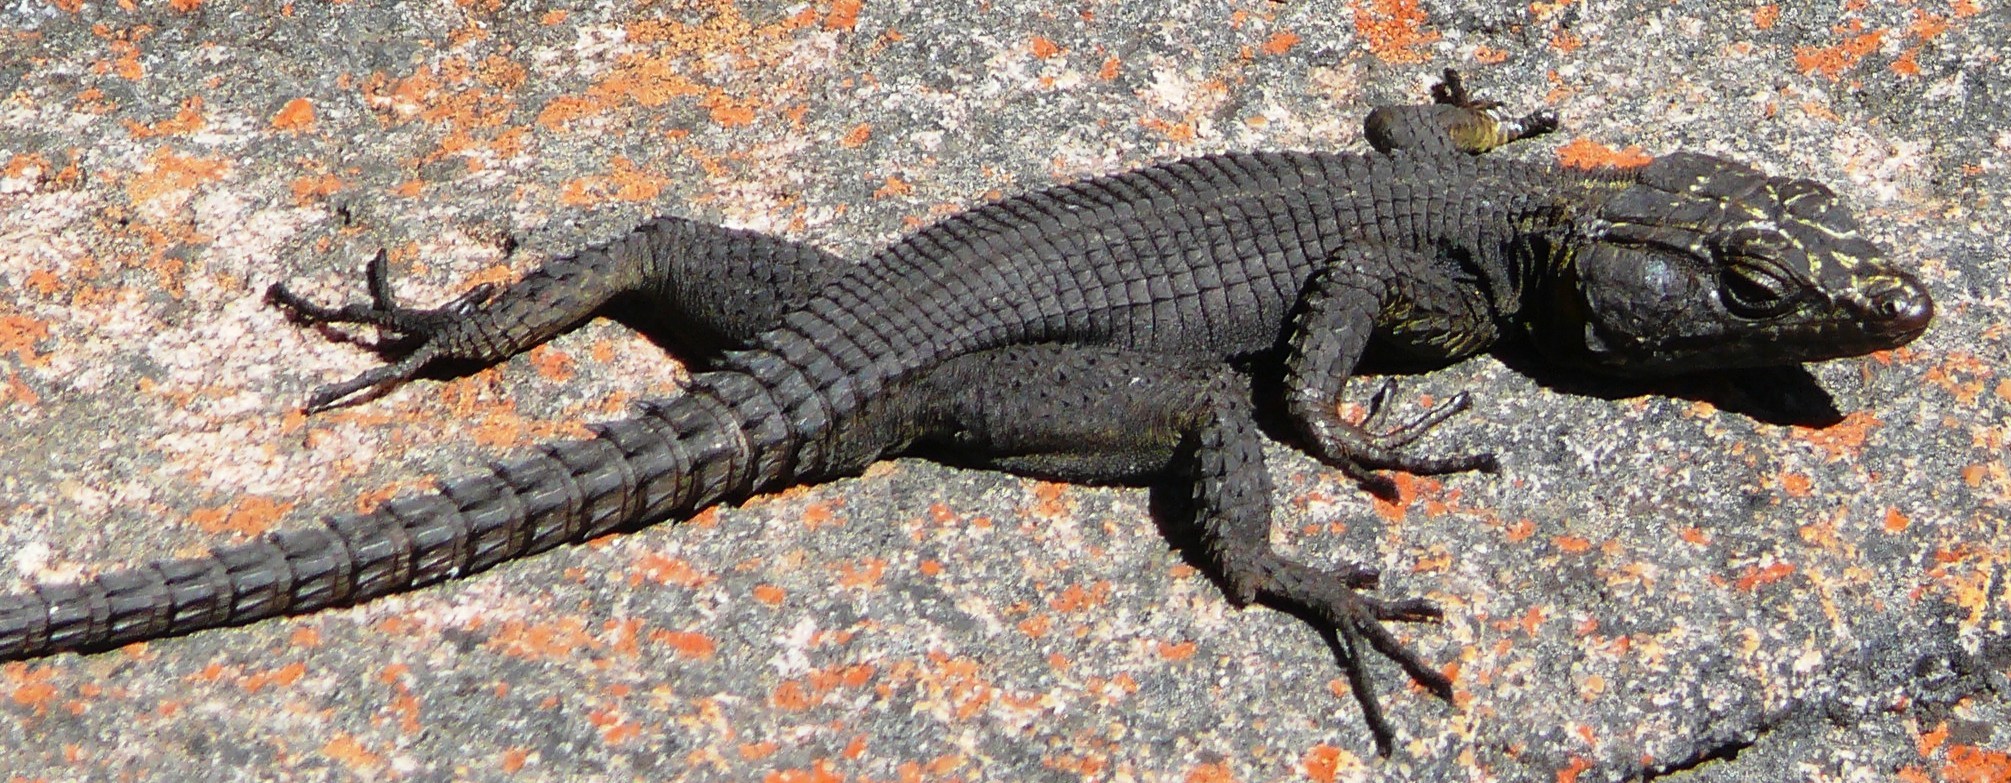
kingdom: Animalia
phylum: Chordata
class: Squamata
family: Cordylidae
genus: Hemicordylus
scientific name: Hemicordylus capensis
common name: Graceful crag lizard
